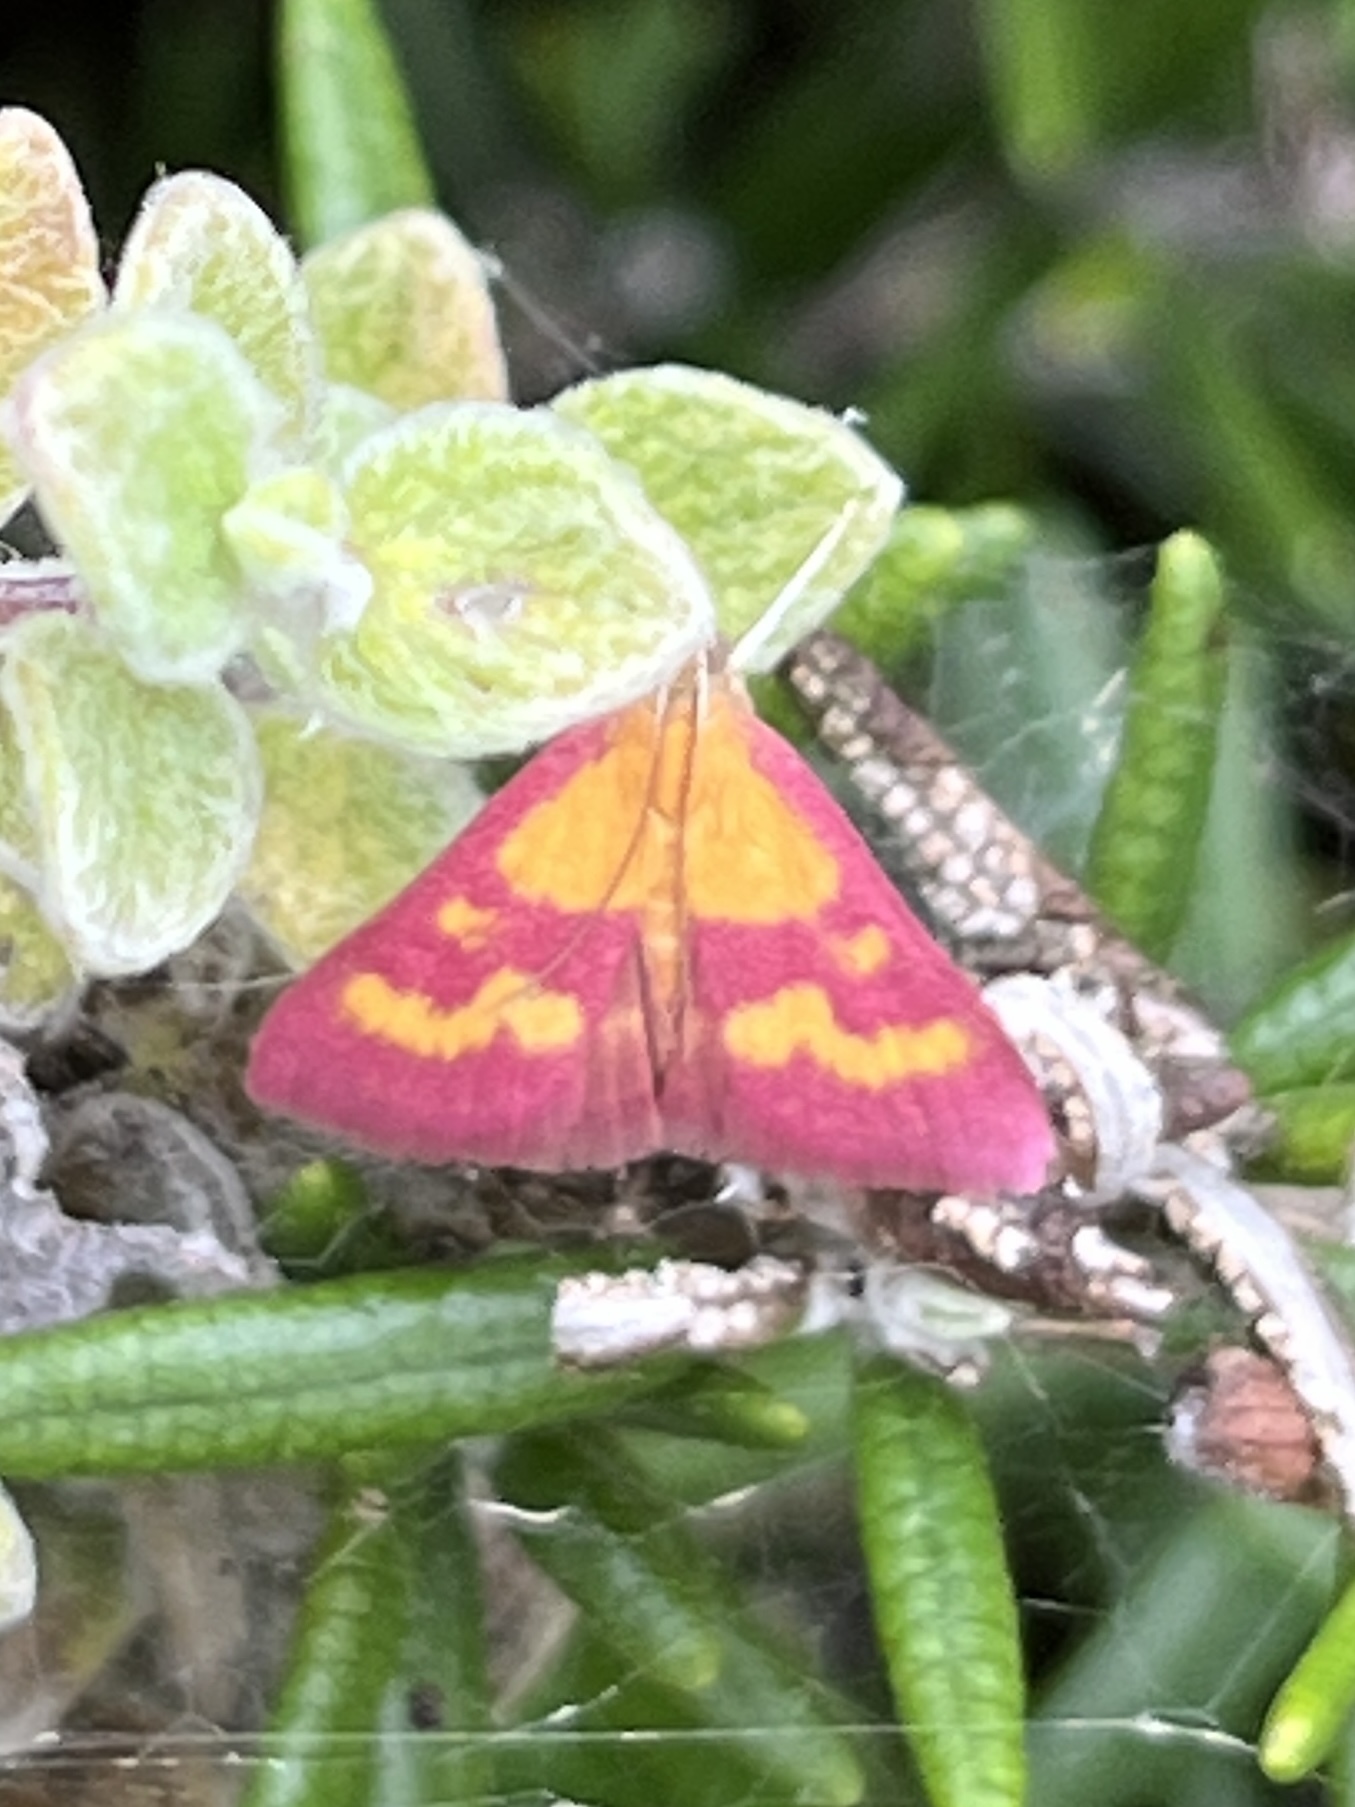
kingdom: Animalia
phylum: Arthropoda
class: Insecta
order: Lepidoptera
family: Crambidae
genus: Pyrausta
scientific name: Pyrausta laticlavia
